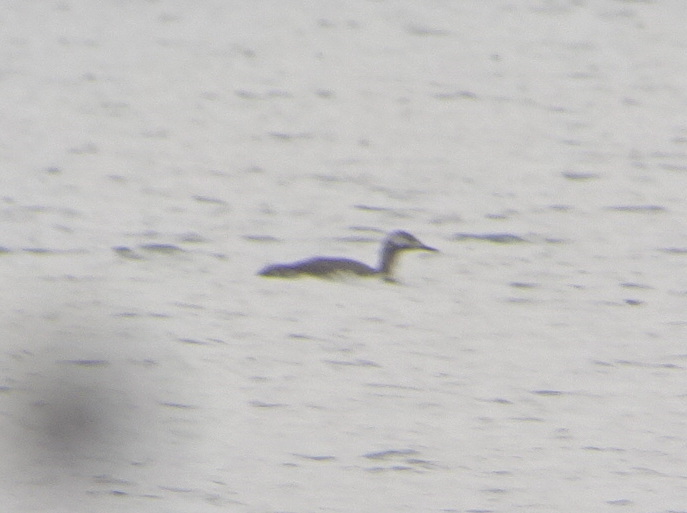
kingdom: Animalia
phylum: Chordata
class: Aves
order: Gaviiformes
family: Gaviidae
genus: Gavia
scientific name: Gavia stellata
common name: Red-throated loon
